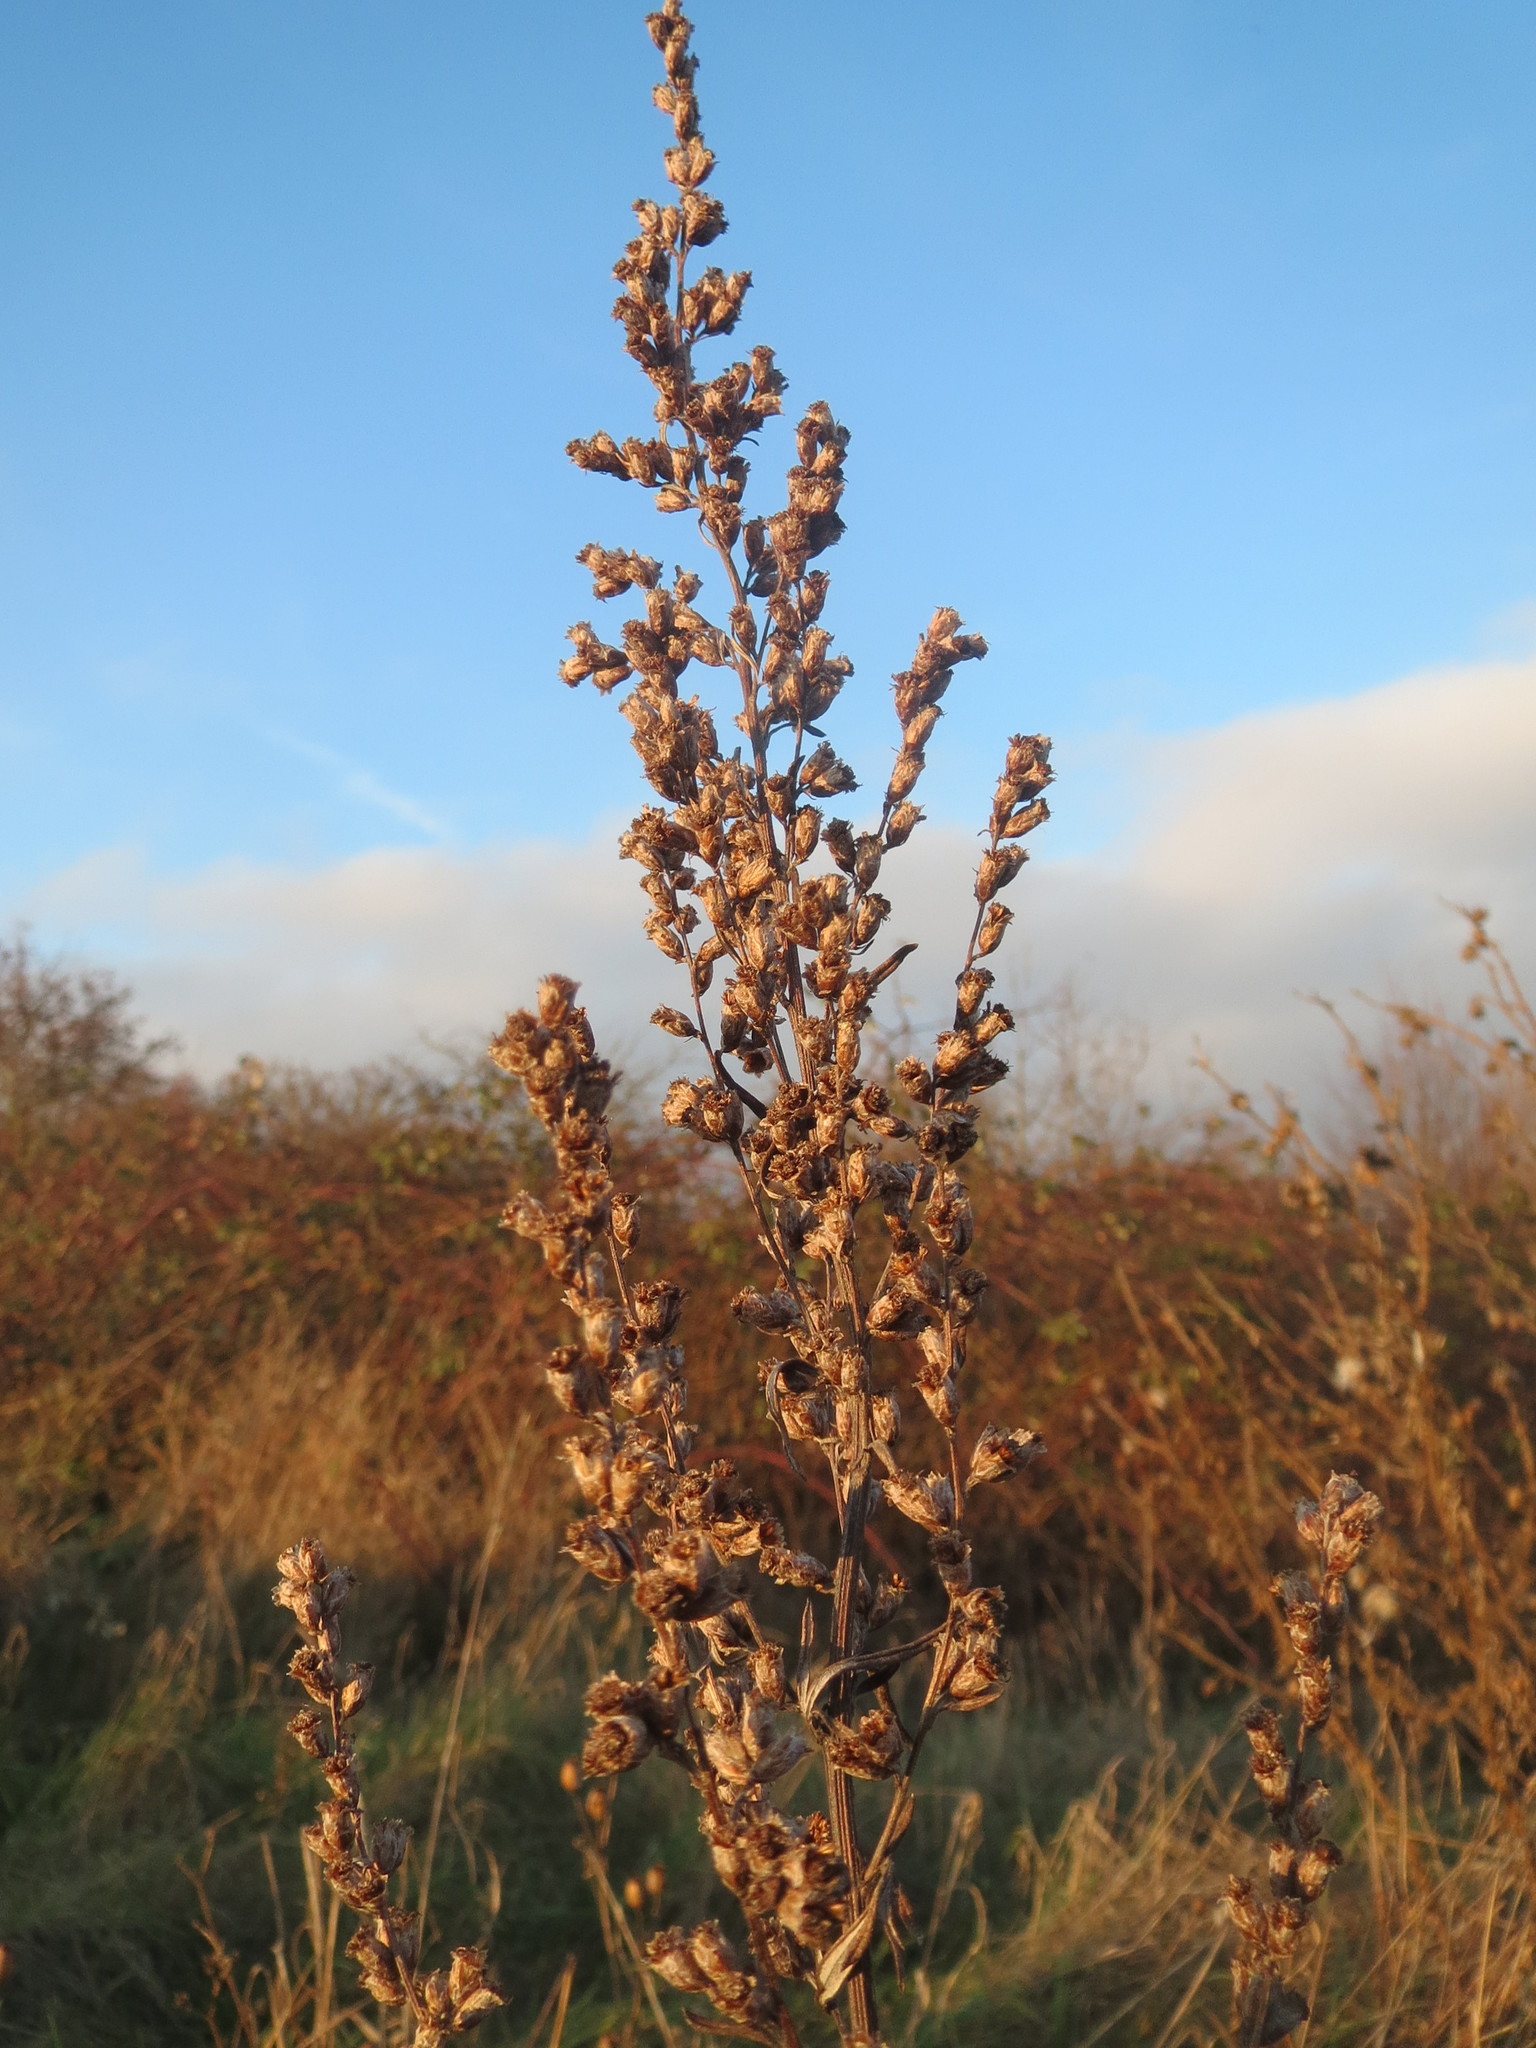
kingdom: Plantae
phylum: Tracheophyta
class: Magnoliopsida
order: Asterales
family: Asteraceae
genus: Artemisia
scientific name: Artemisia vulgaris
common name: Mugwort
